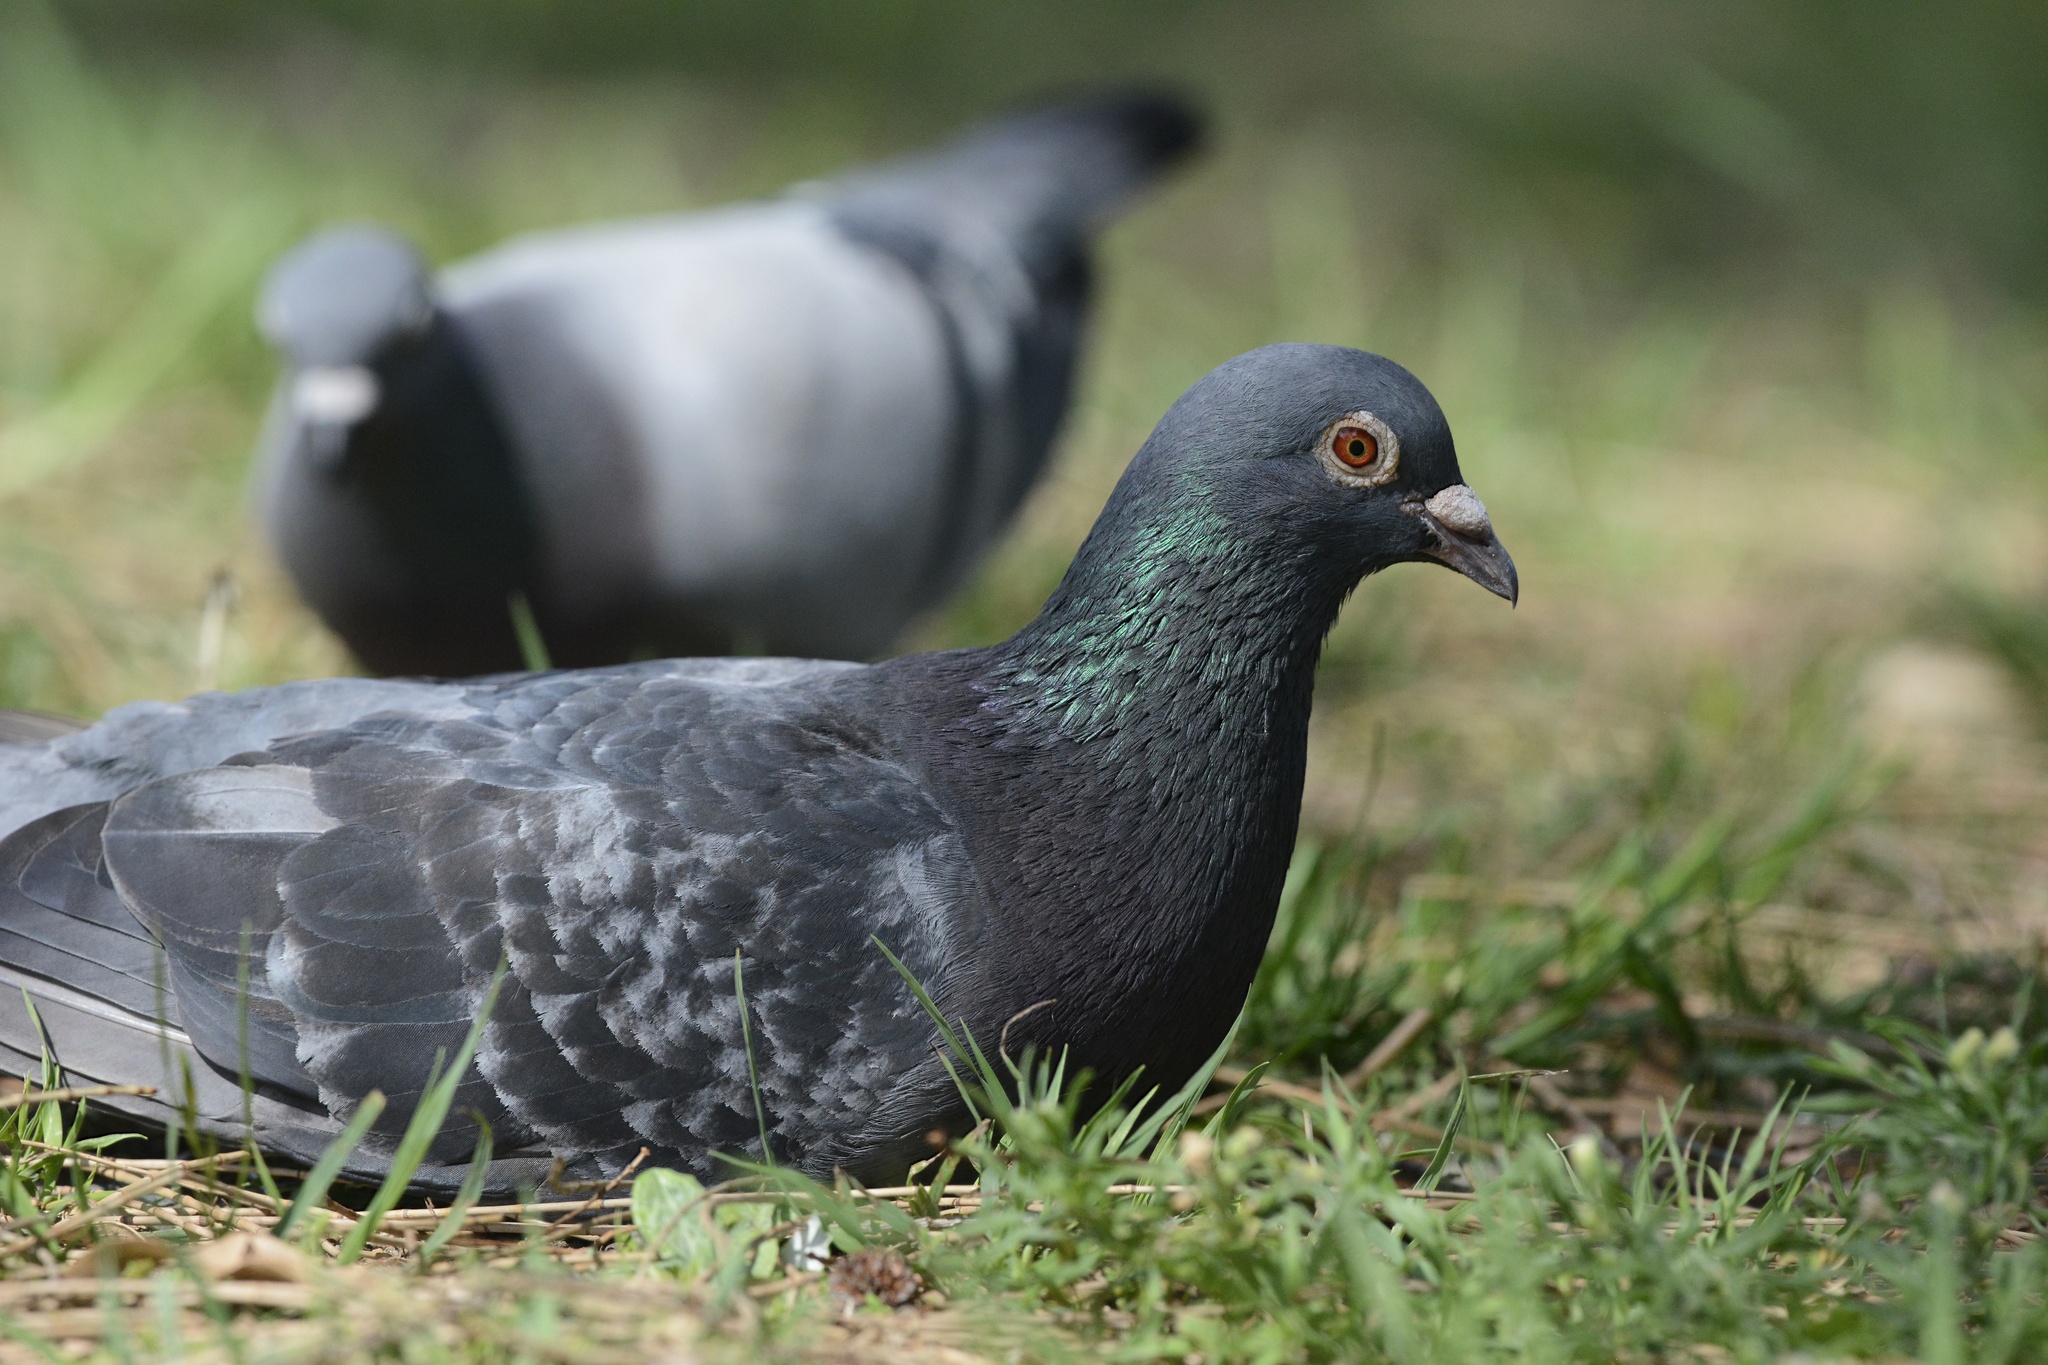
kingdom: Animalia
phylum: Chordata
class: Aves
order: Columbiformes
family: Columbidae
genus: Columba
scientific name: Columba livia
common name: Rock pigeon
